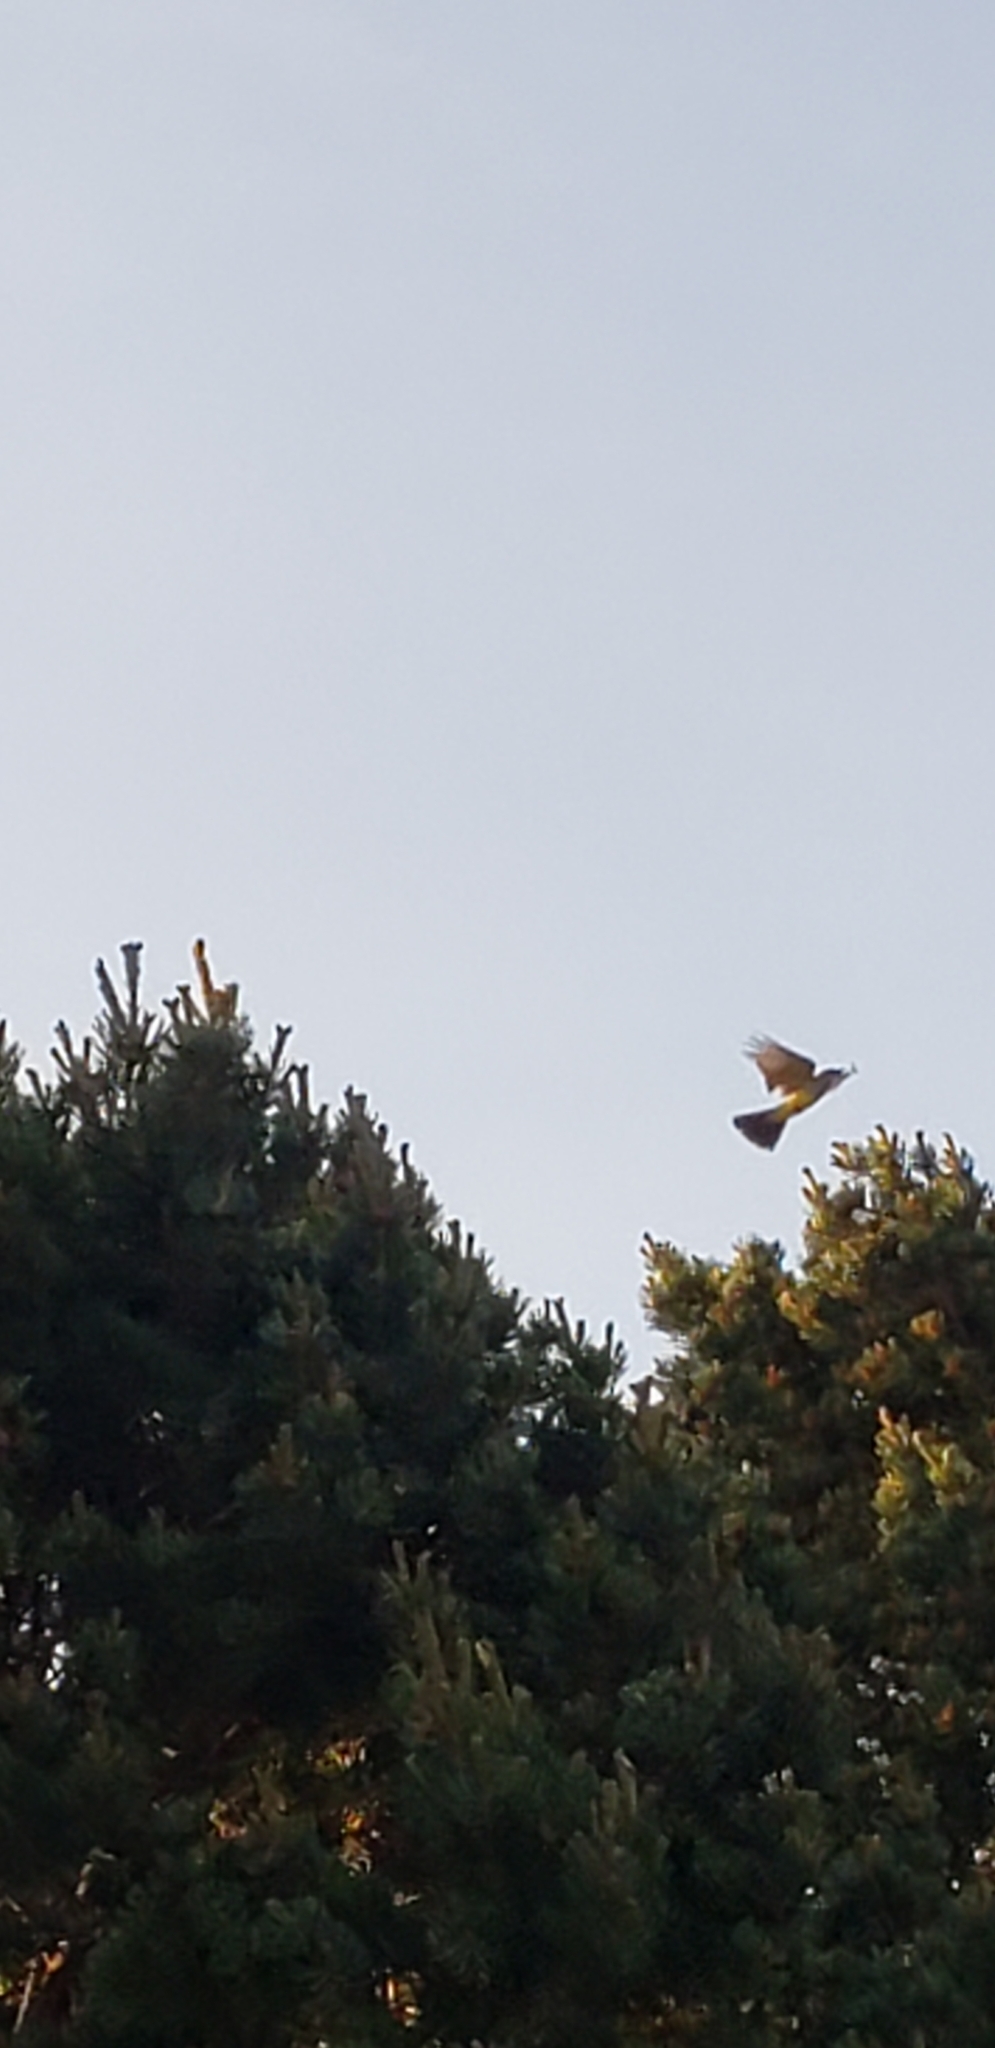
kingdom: Animalia
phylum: Chordata
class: Aves
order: Passeriformes
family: Tyrannidae
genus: Tyrannus
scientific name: Tyrannus verticalis
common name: Western kingbird
